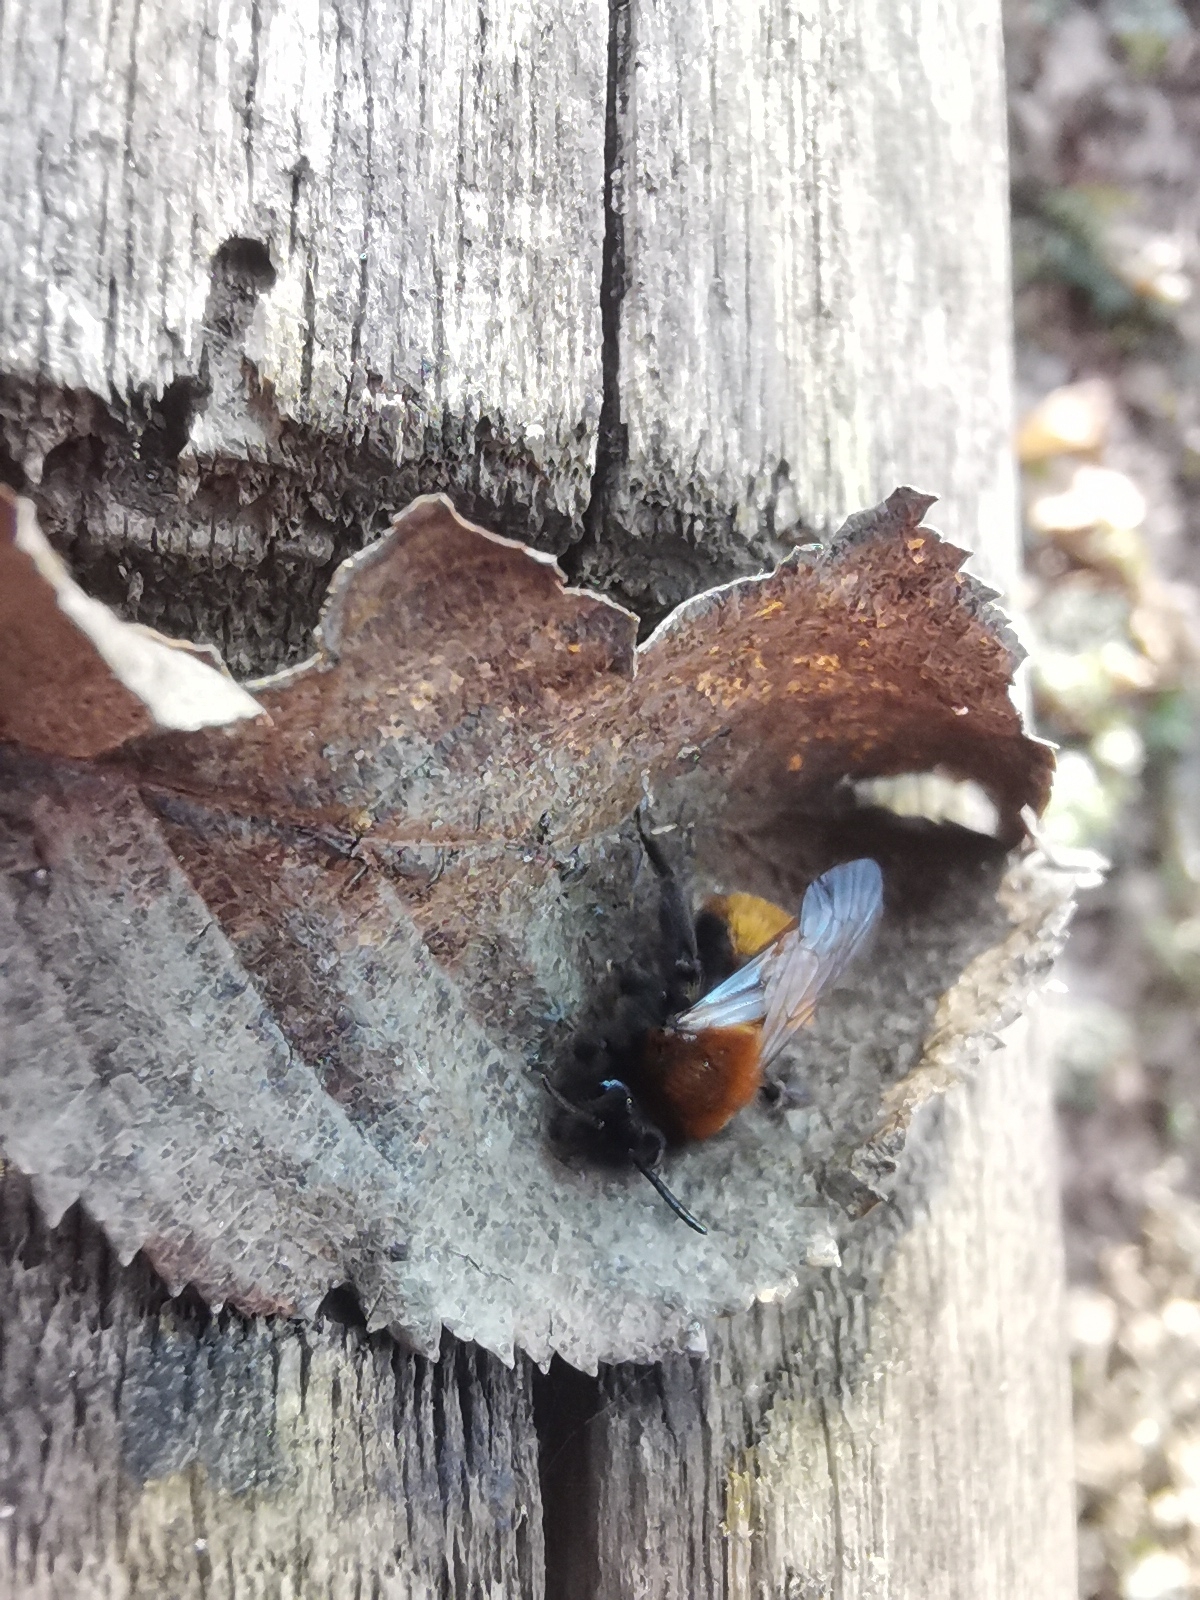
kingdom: Animalia
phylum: Arthropoda
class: Insecta
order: Hymenoptera
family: Andrenidae
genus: Andrena
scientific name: Andrena fulva
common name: Tawny mining bee
